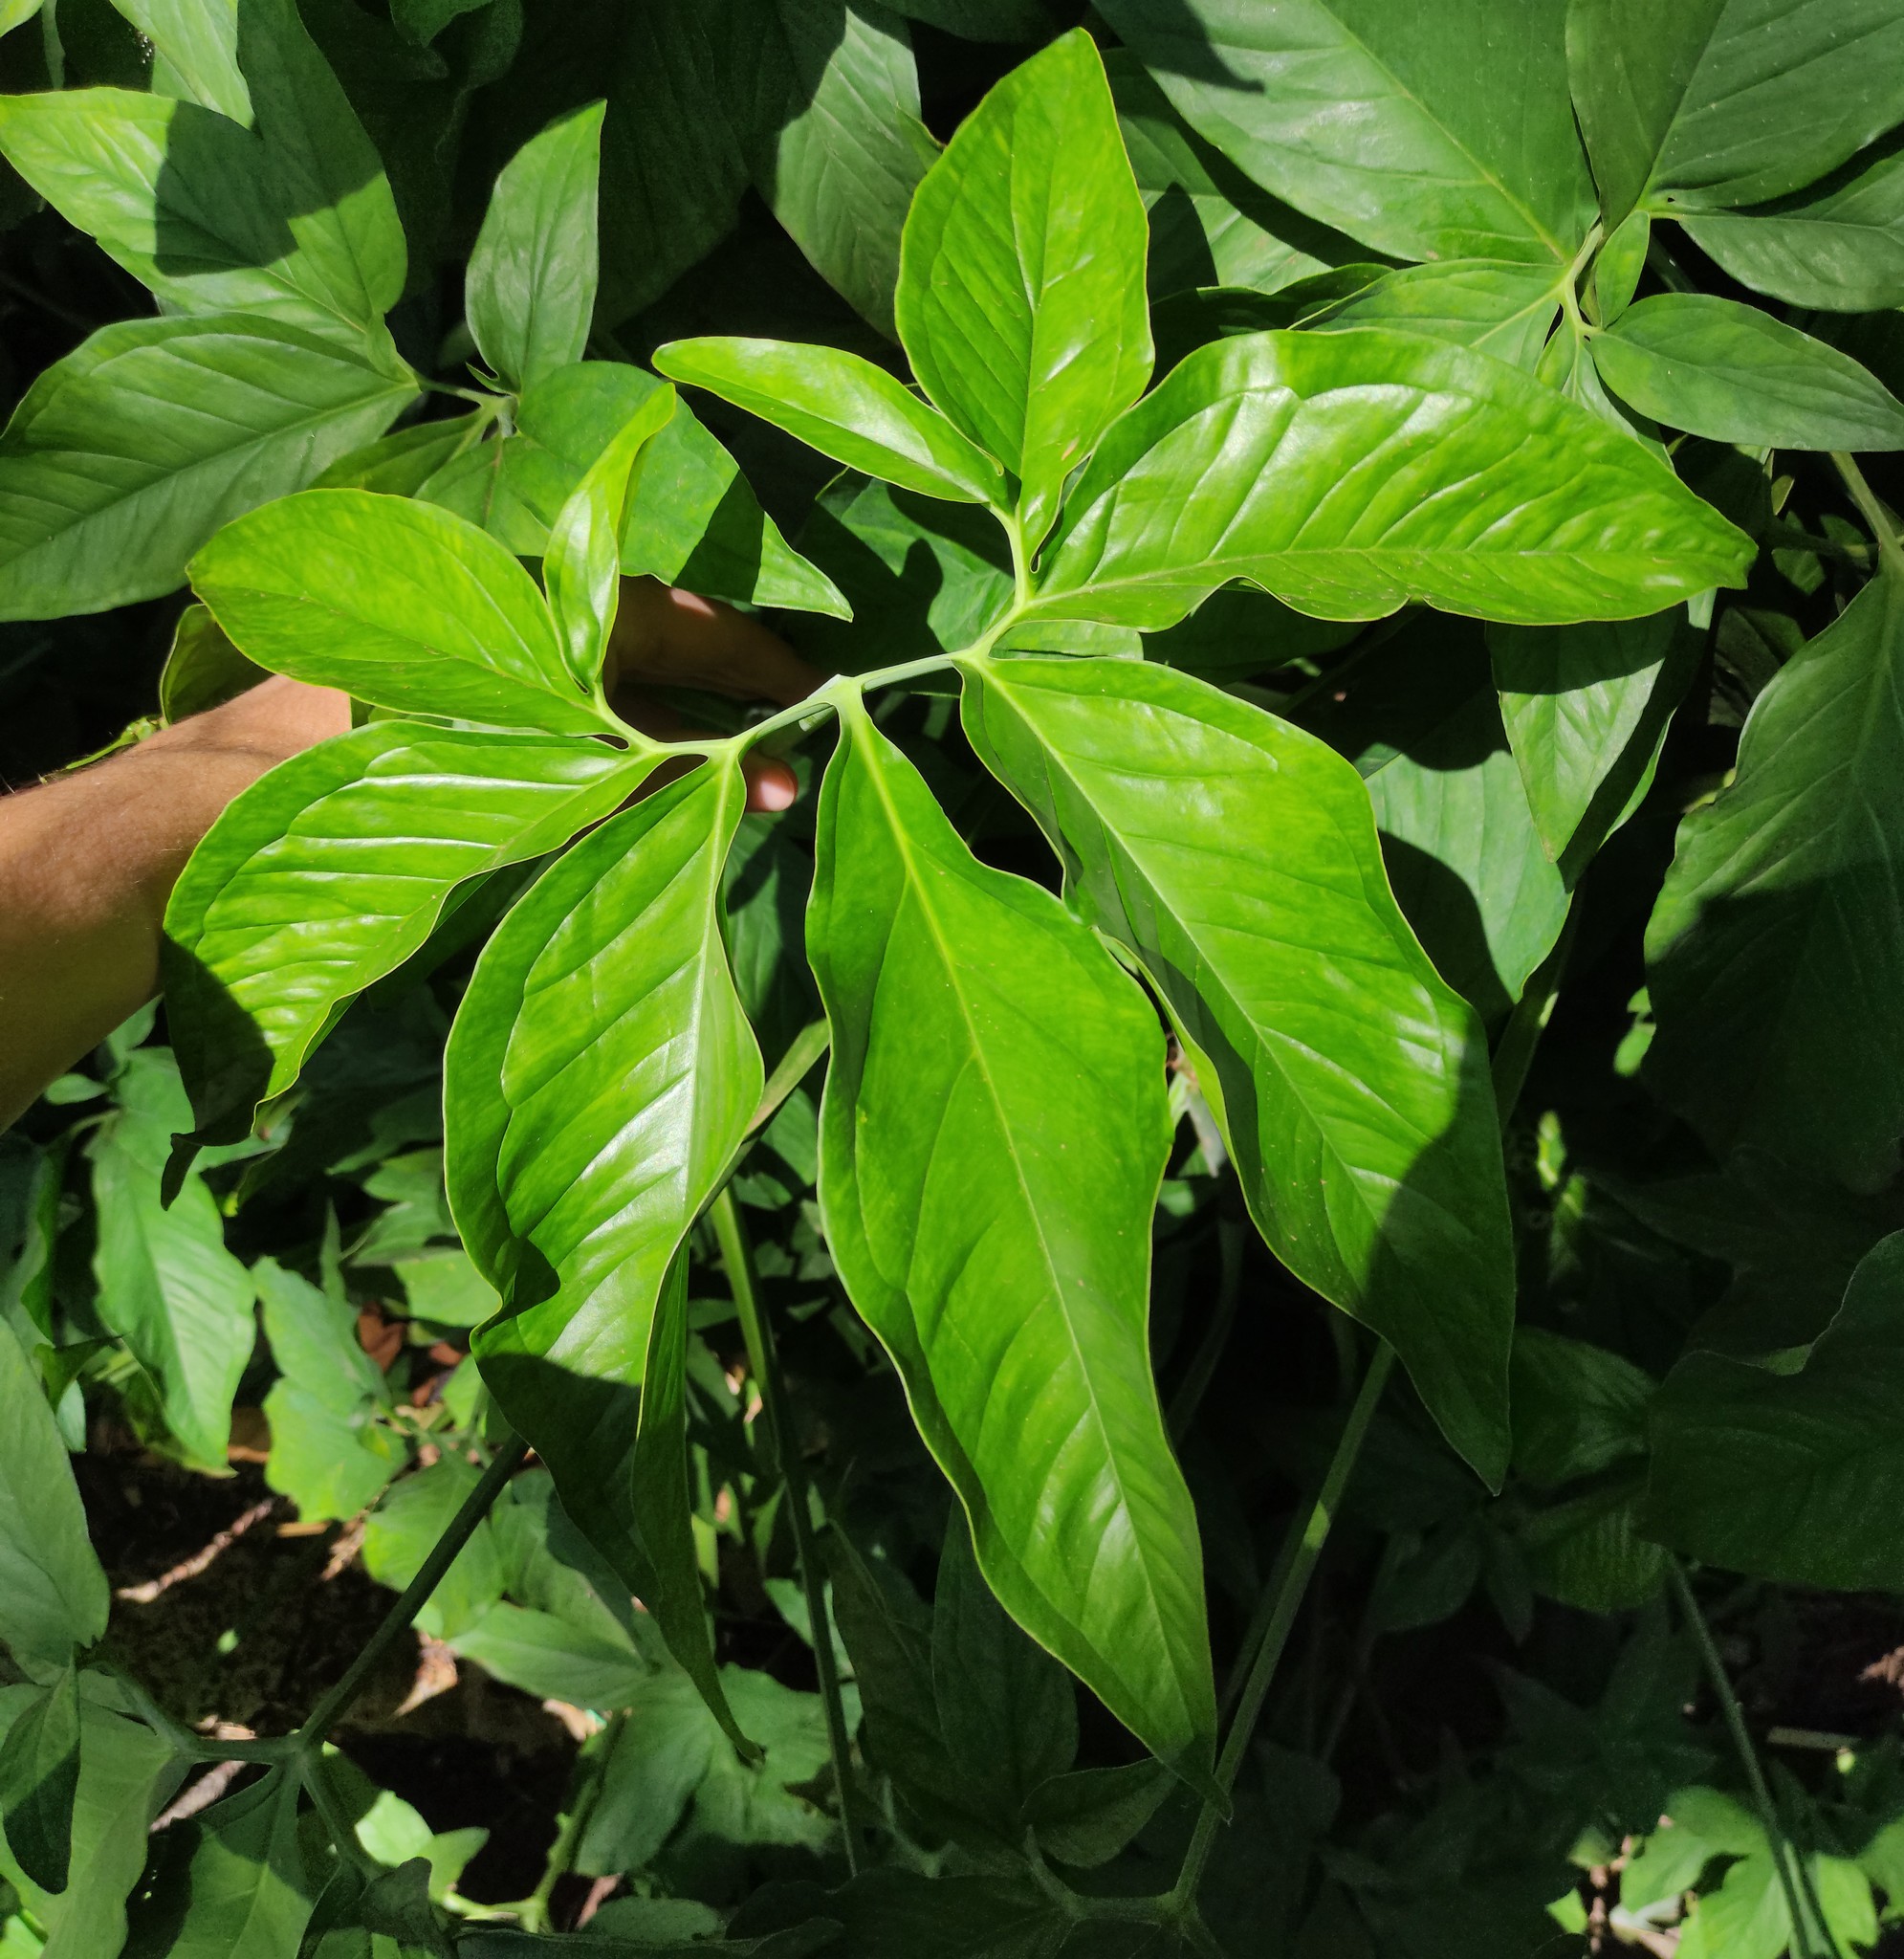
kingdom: Plantae
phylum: Tracheophyta
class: Liliopsida
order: Alismatales
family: Araceae
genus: Syngonium
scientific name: Syngonium podophyllum
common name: American evergreen
